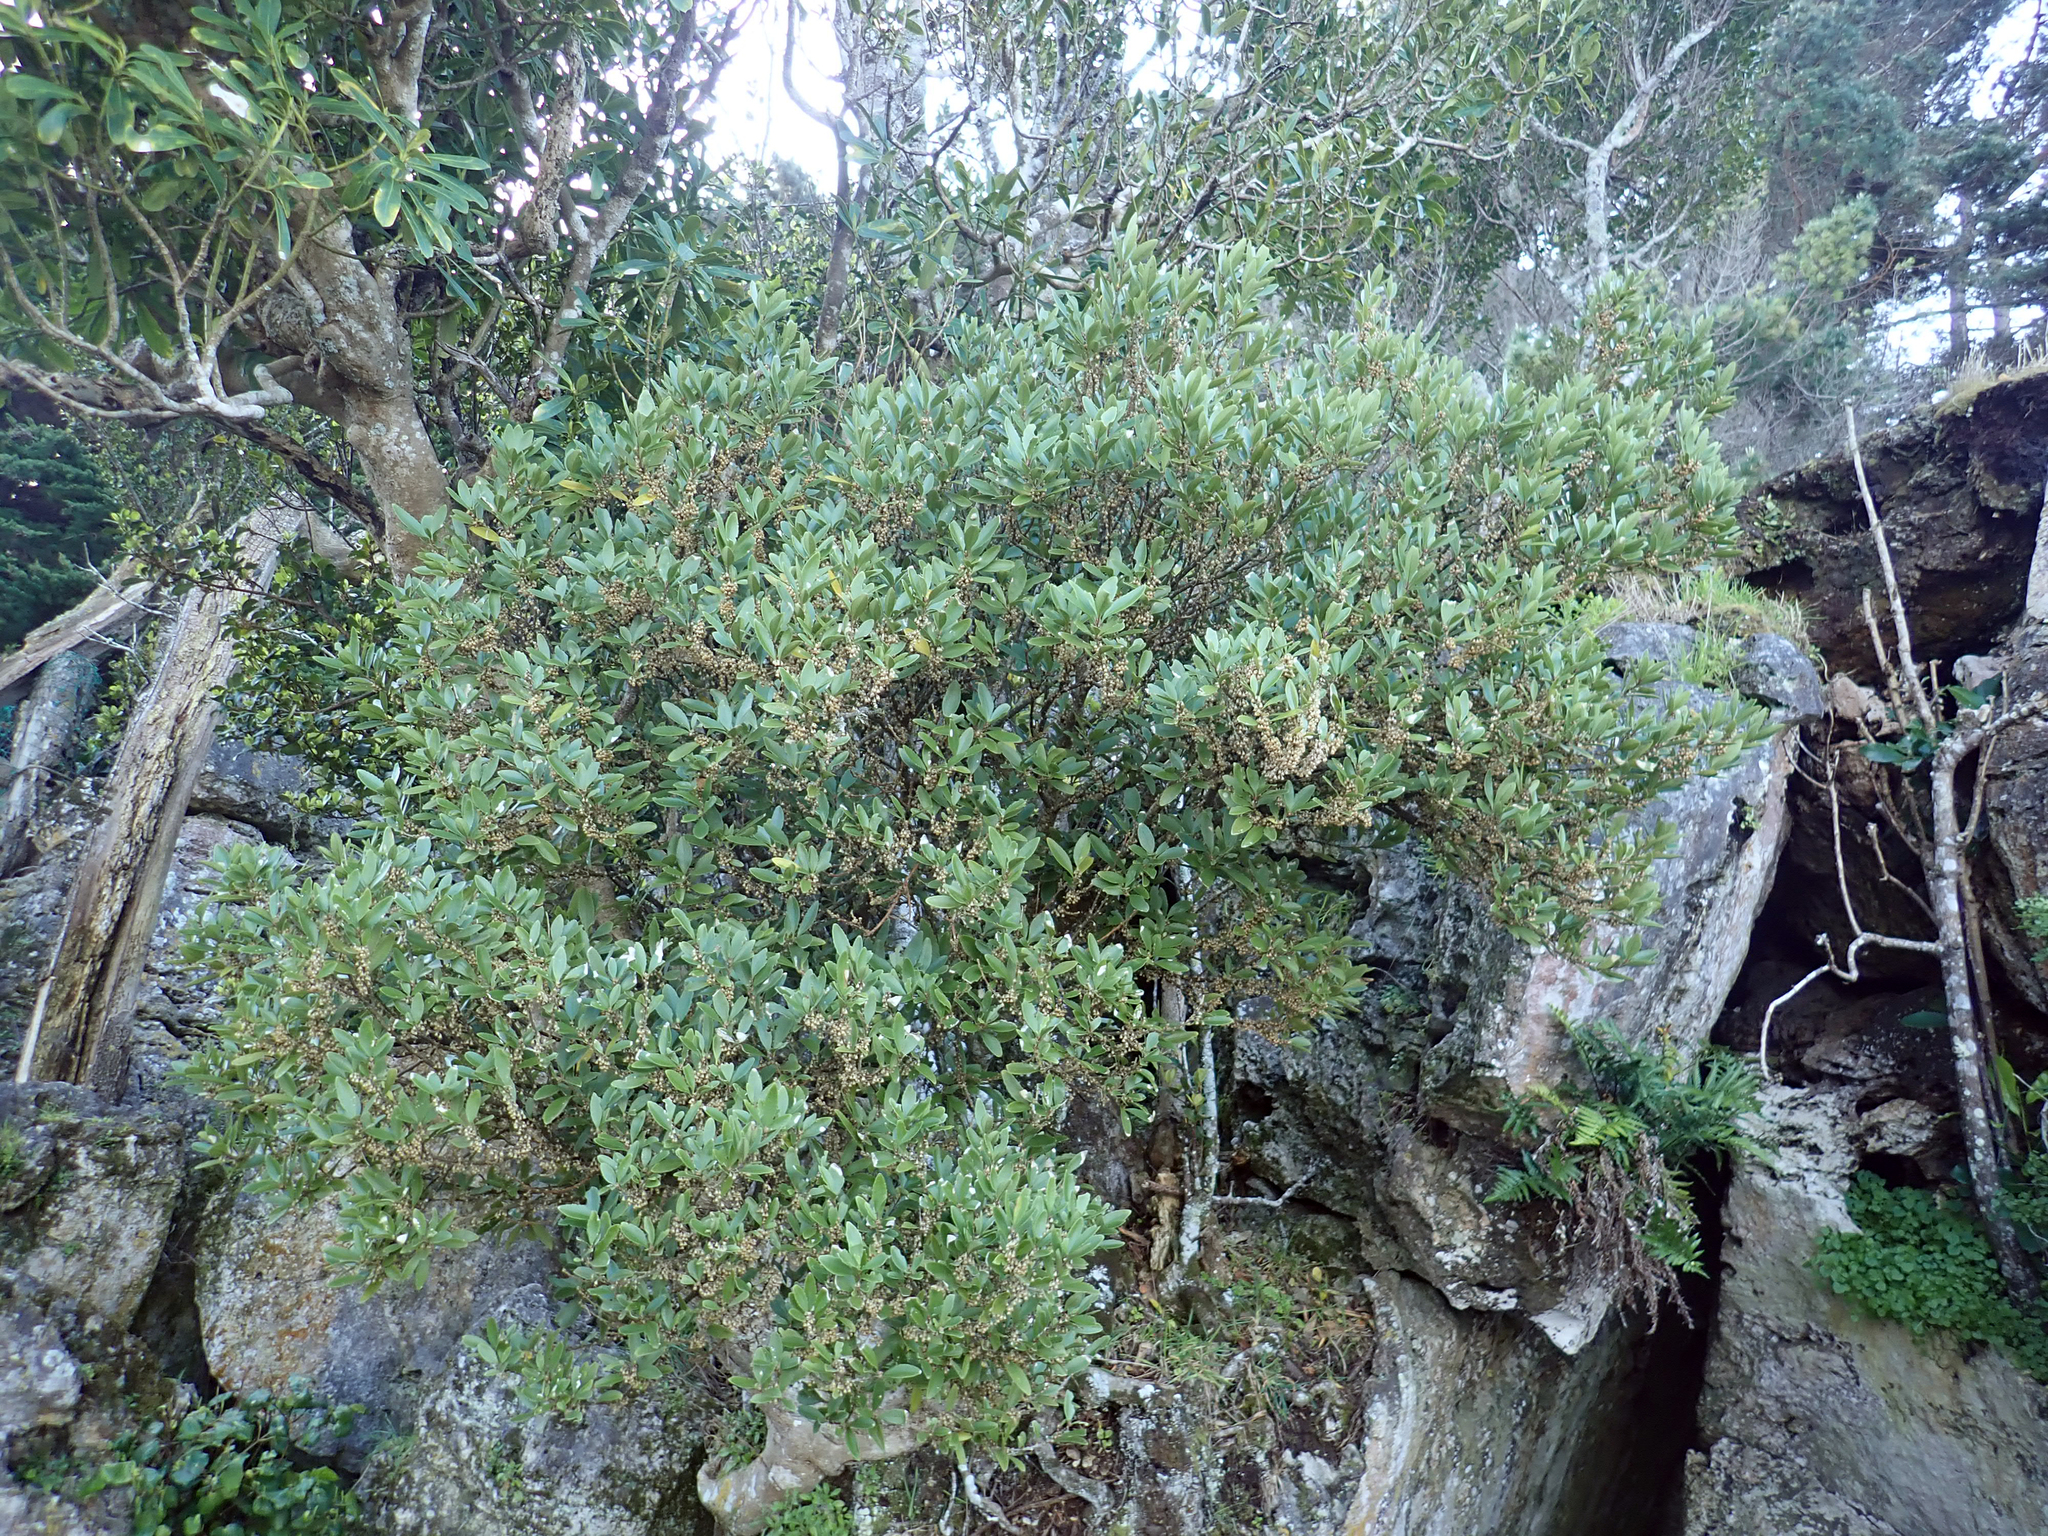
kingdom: Plantae
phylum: Tracheophyta
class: Magnoliopsida
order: Malpighiales
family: Violaceae
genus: Melicytus
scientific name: Melicytus chathamicus
